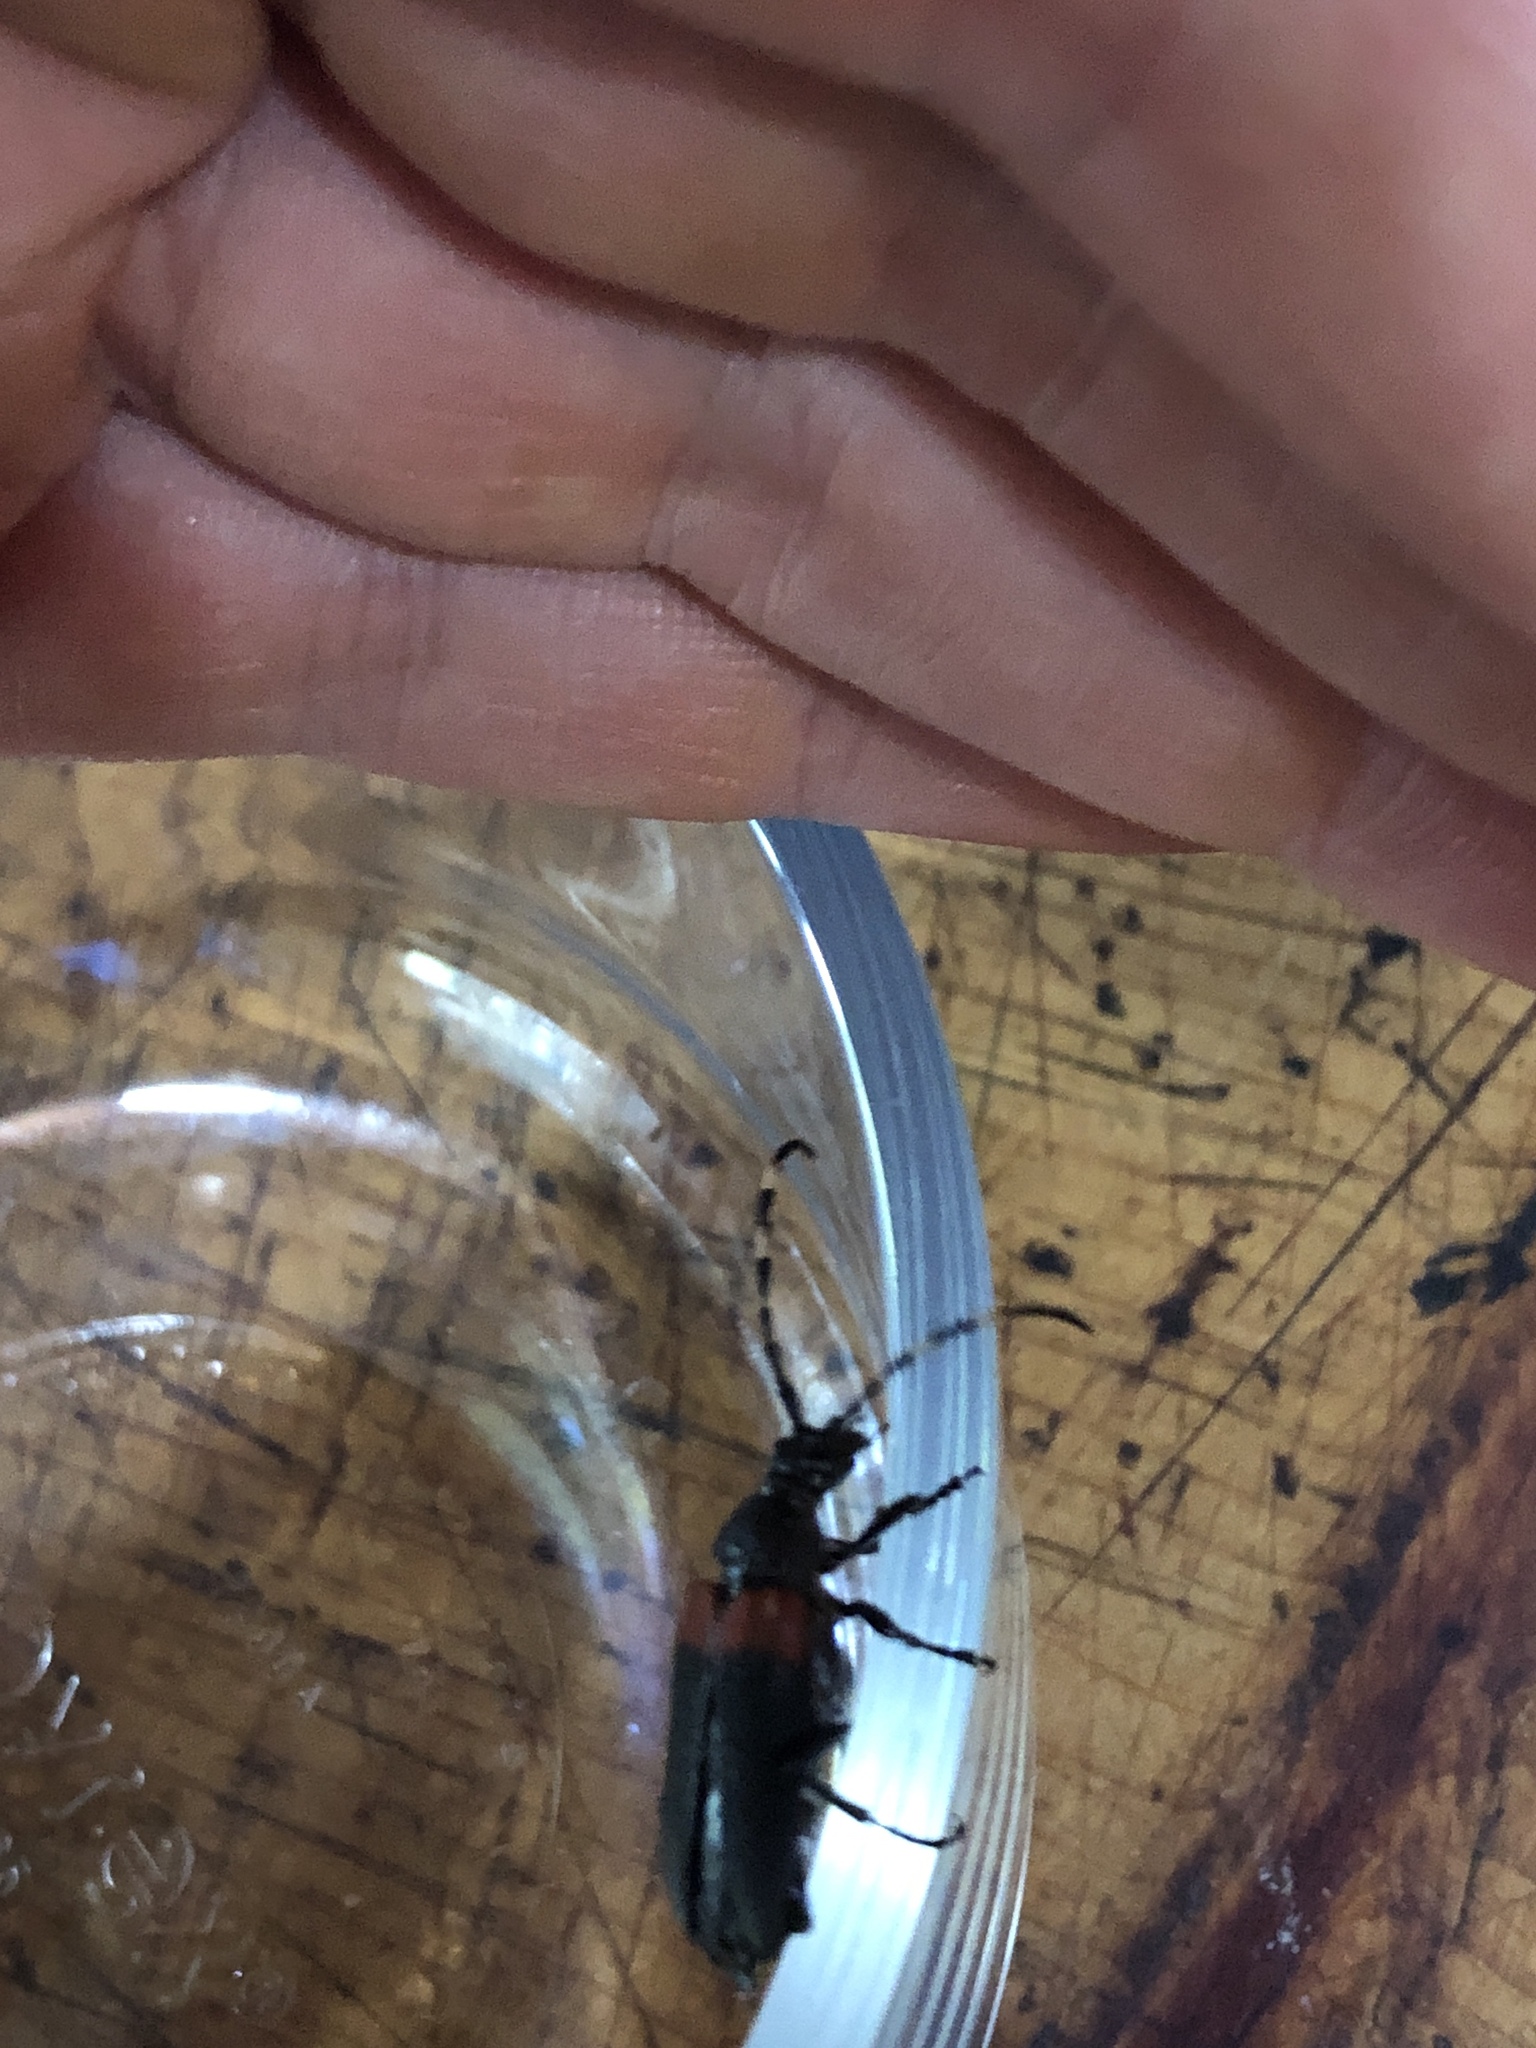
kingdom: Animalia
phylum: Arthropoda
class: Insecta
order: Coleoptera
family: Cerambycidae
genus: Stictoleptura
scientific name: Stictoleptura canadensis
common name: Red-shouldered pine borer
